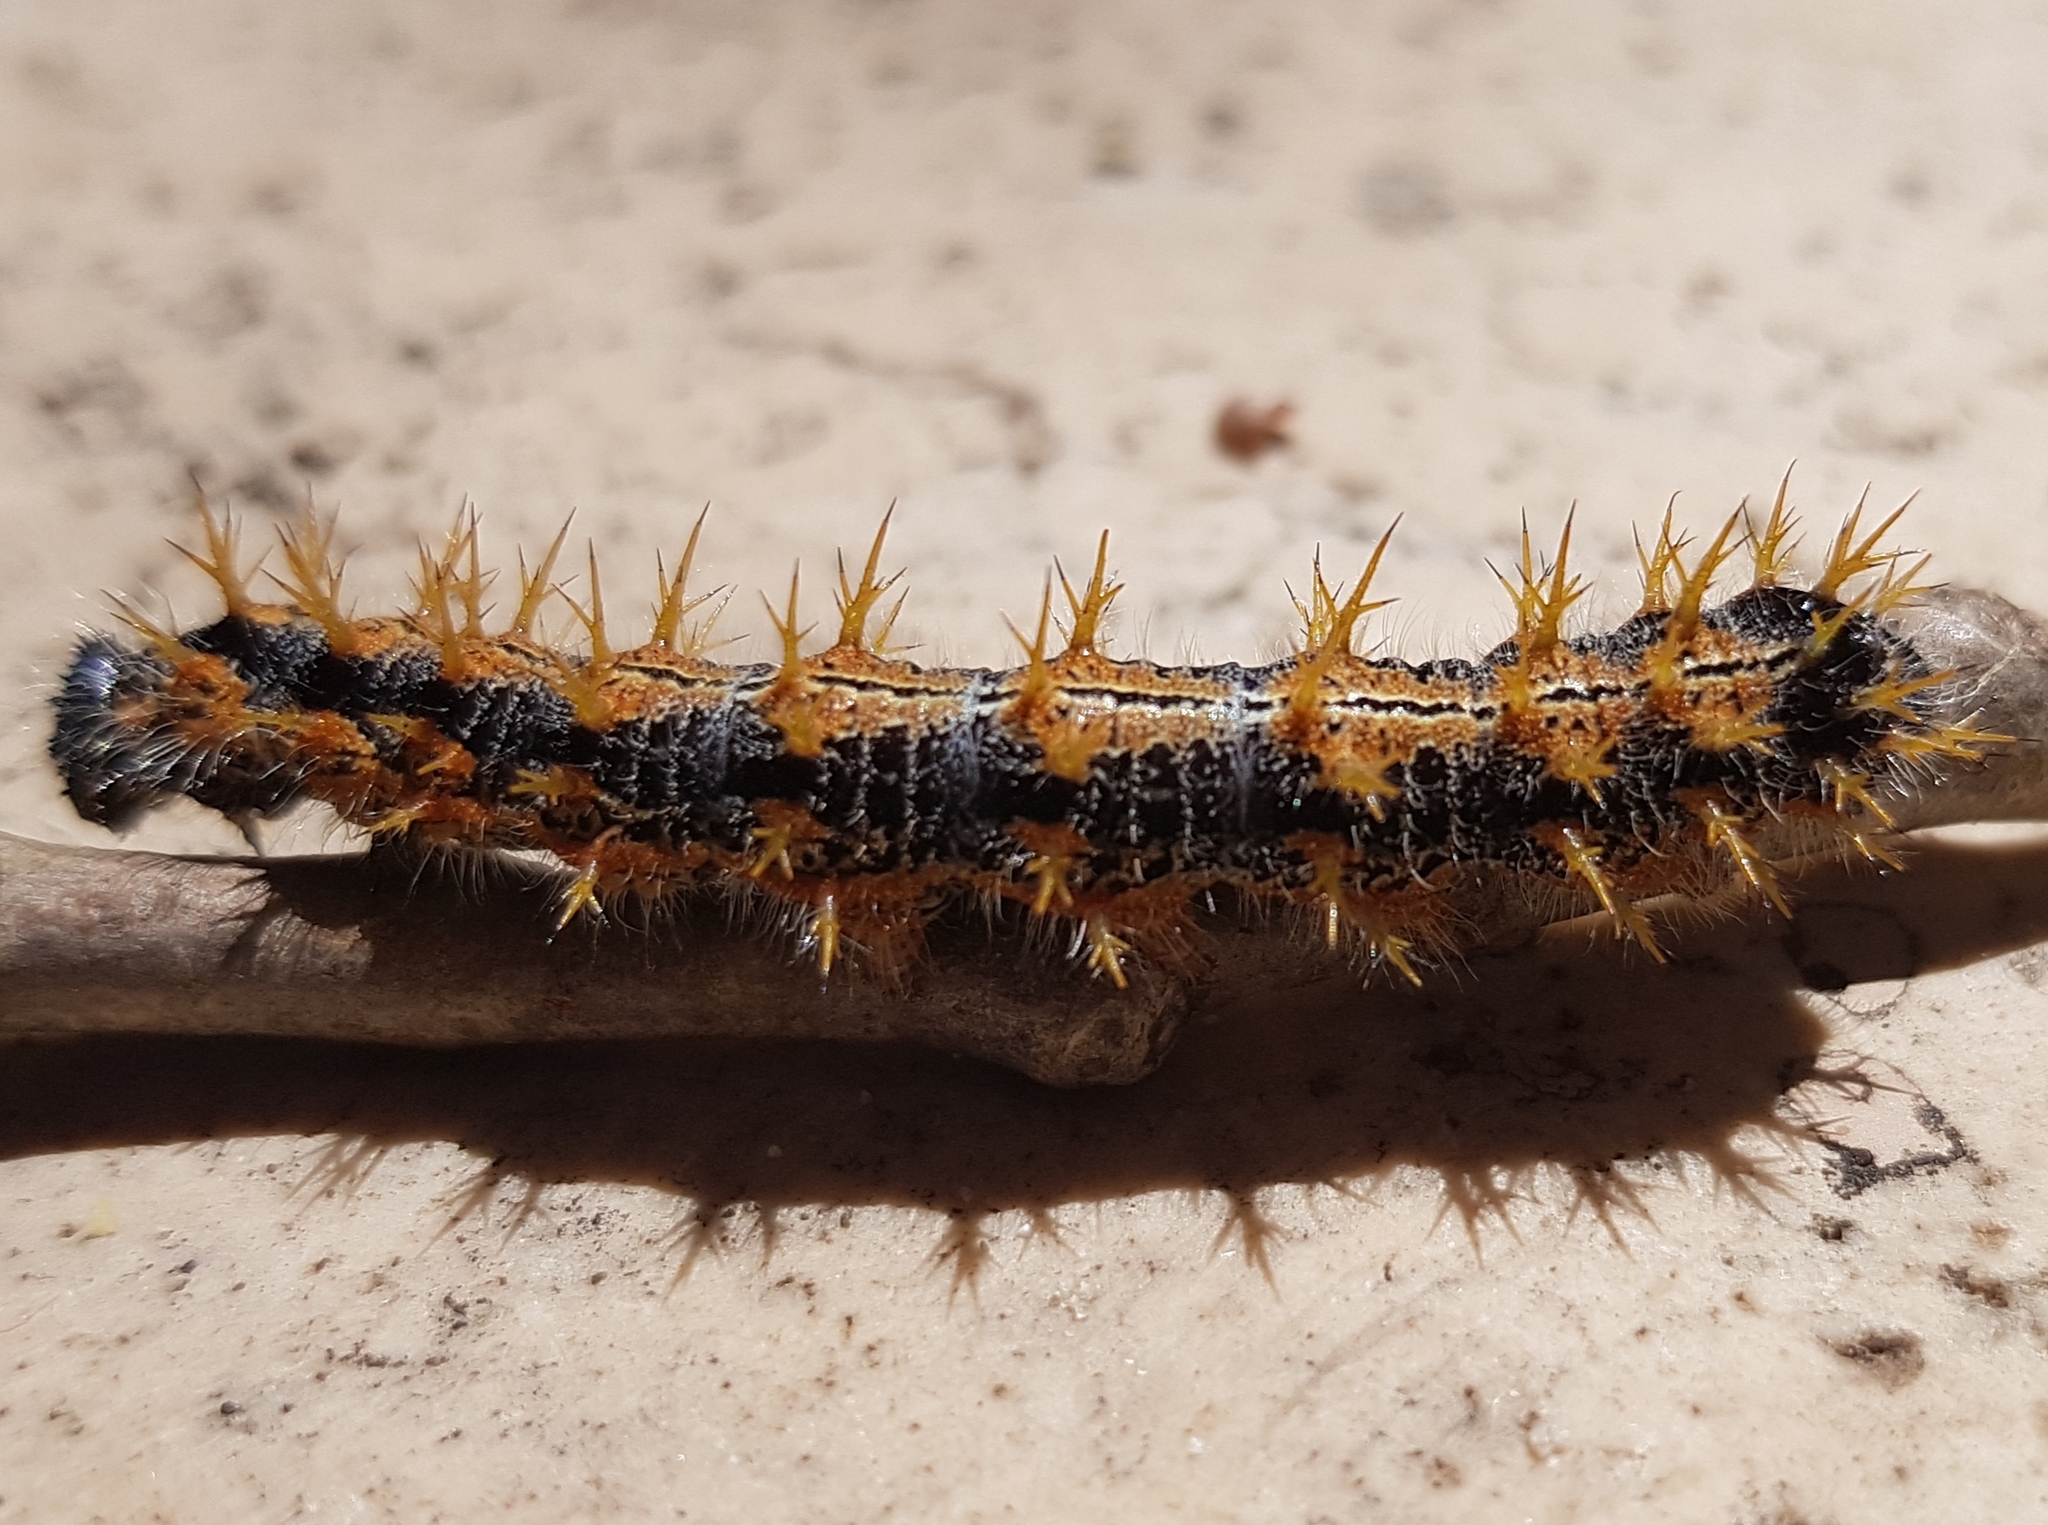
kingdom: Animalia
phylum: Arthropoda
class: Insecta
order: Lepidoptera
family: Nymphalidae
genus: Nymphalis
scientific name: Nymphalis polychloros
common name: Large tortoiseshell
